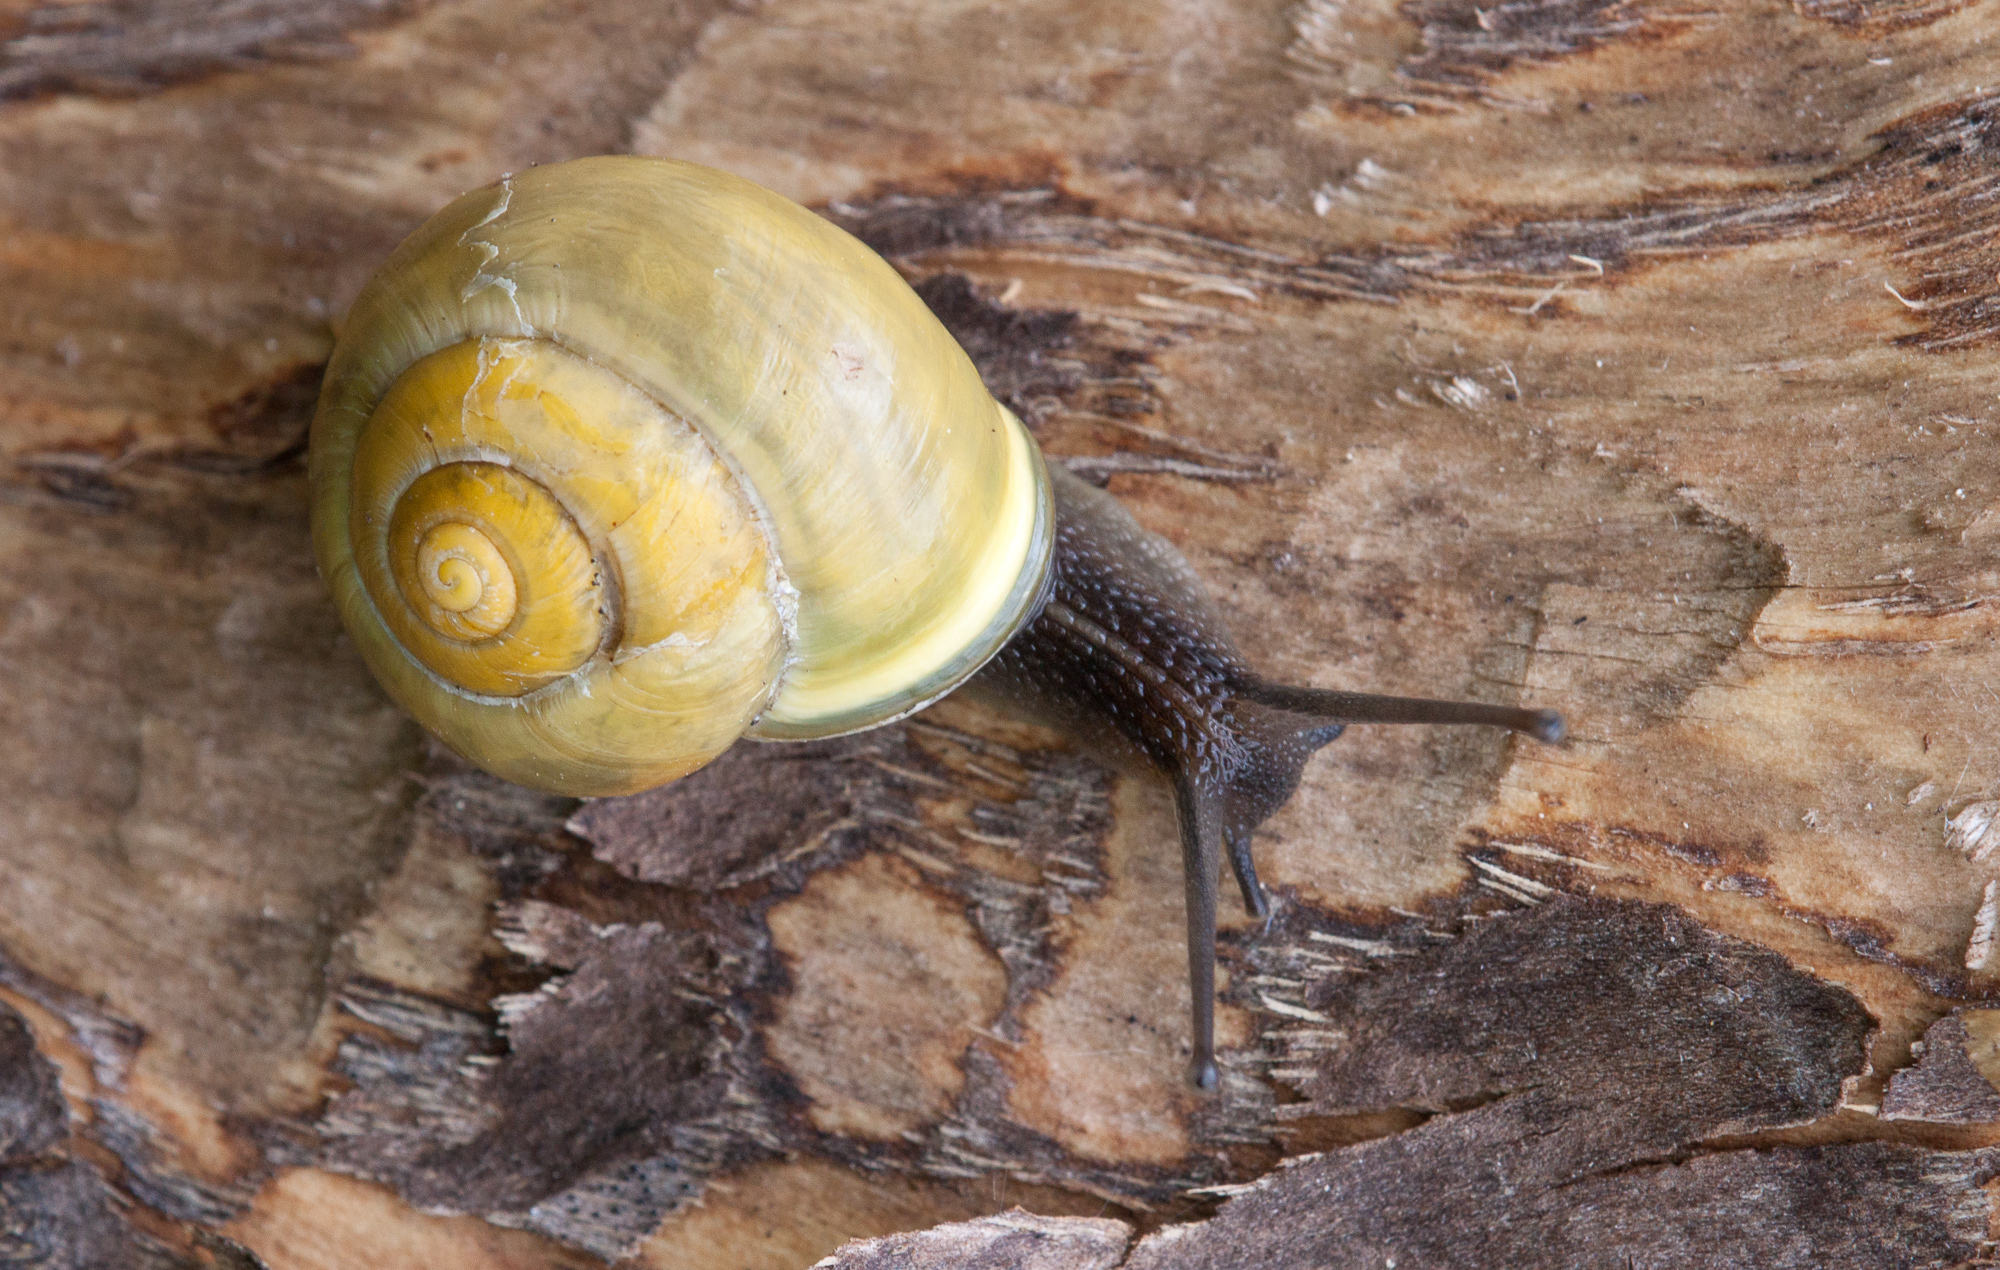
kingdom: Animalia
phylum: Mollusca
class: Gastropoda
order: Stylommatophora
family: Helicidae
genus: Cepaea
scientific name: Cepaea hortensis
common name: White-lip gardensnail
